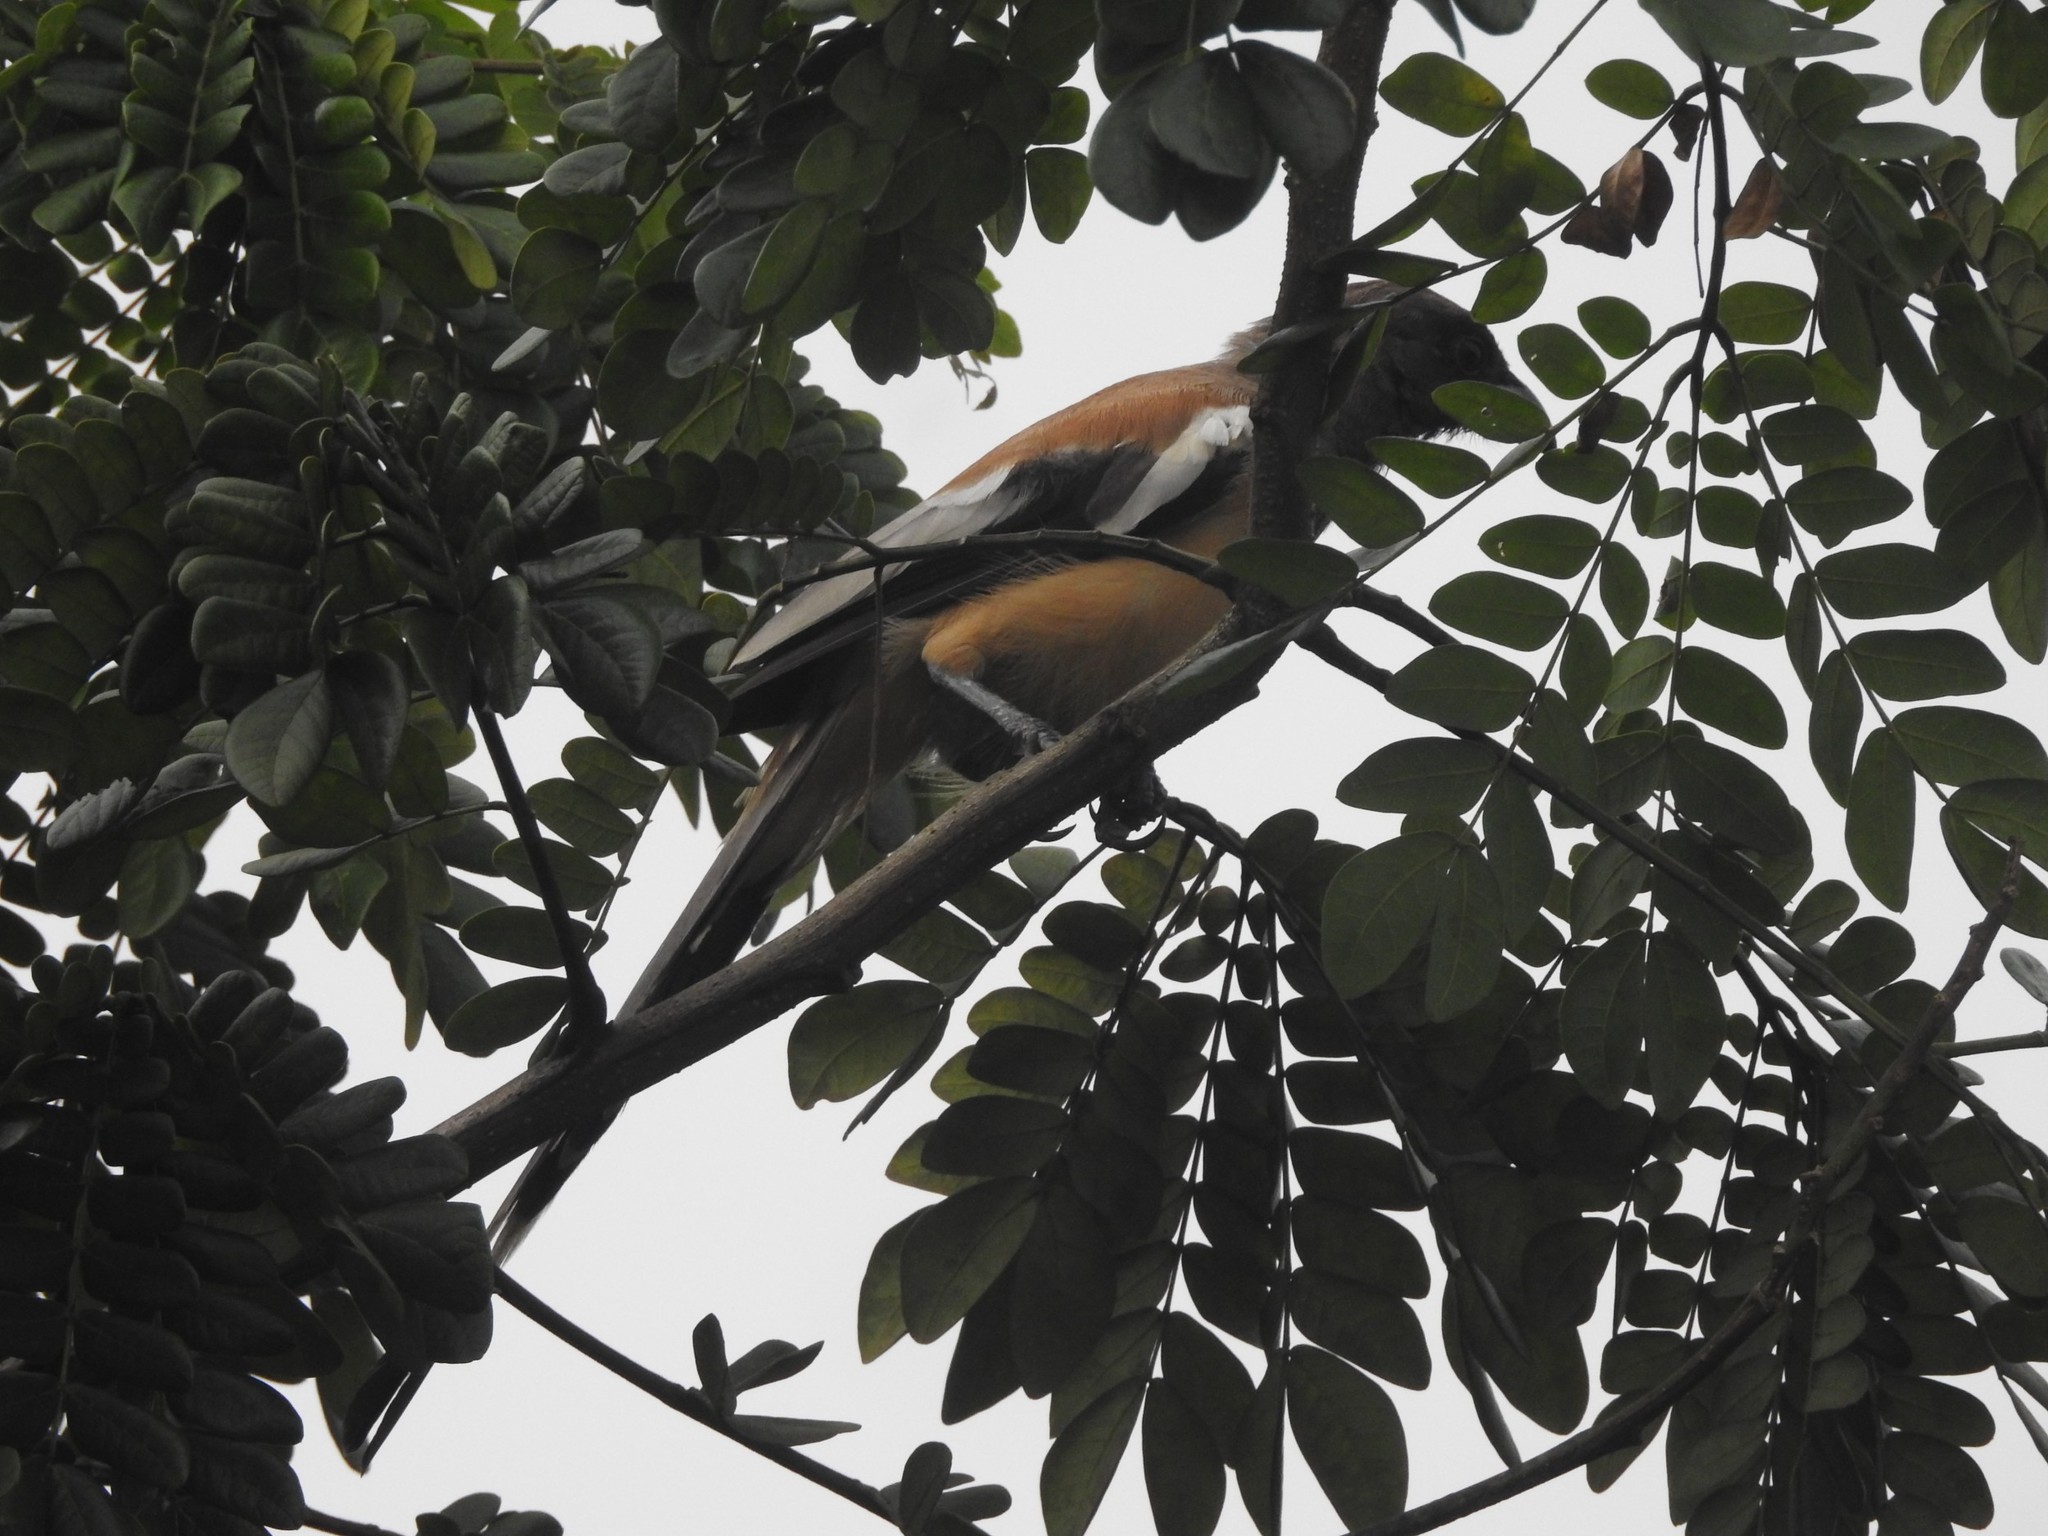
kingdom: Animalia
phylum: Chordata
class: Aves
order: Passeriformes
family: Corvidae
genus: Dendrocitta
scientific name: Dendrocitta vagabunda
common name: Rufous treepie
